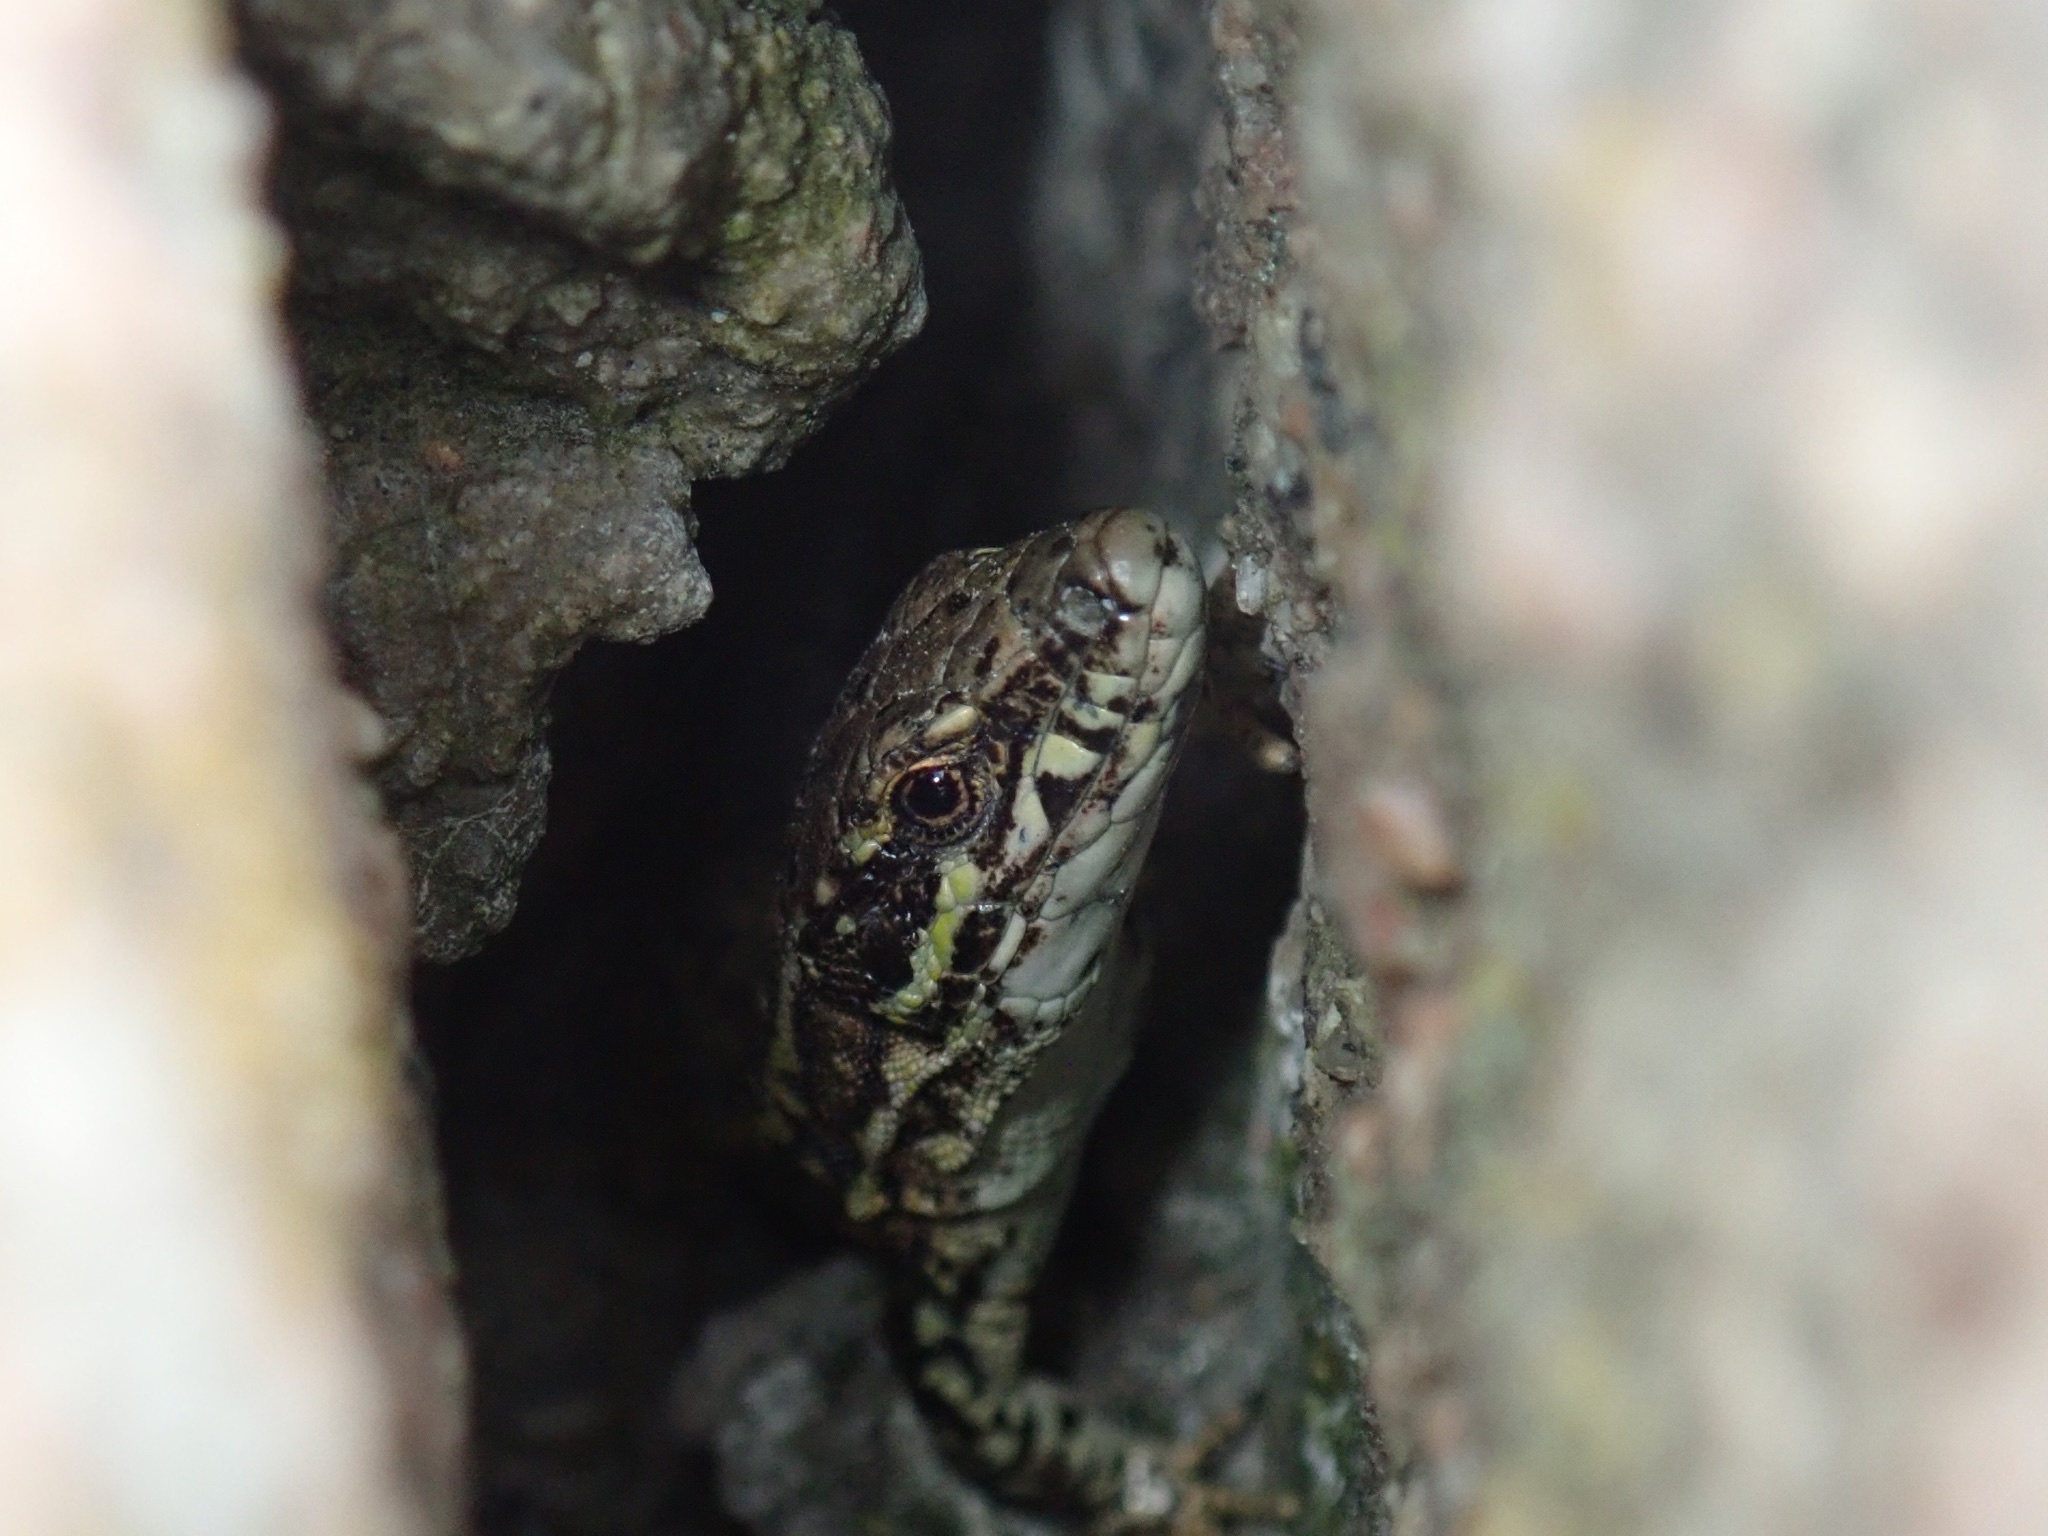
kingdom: Animalia
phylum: Chordata
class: Squamata
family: Lacertidae
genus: Podarcis
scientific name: Podarcis muralis
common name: Common wall lizard
